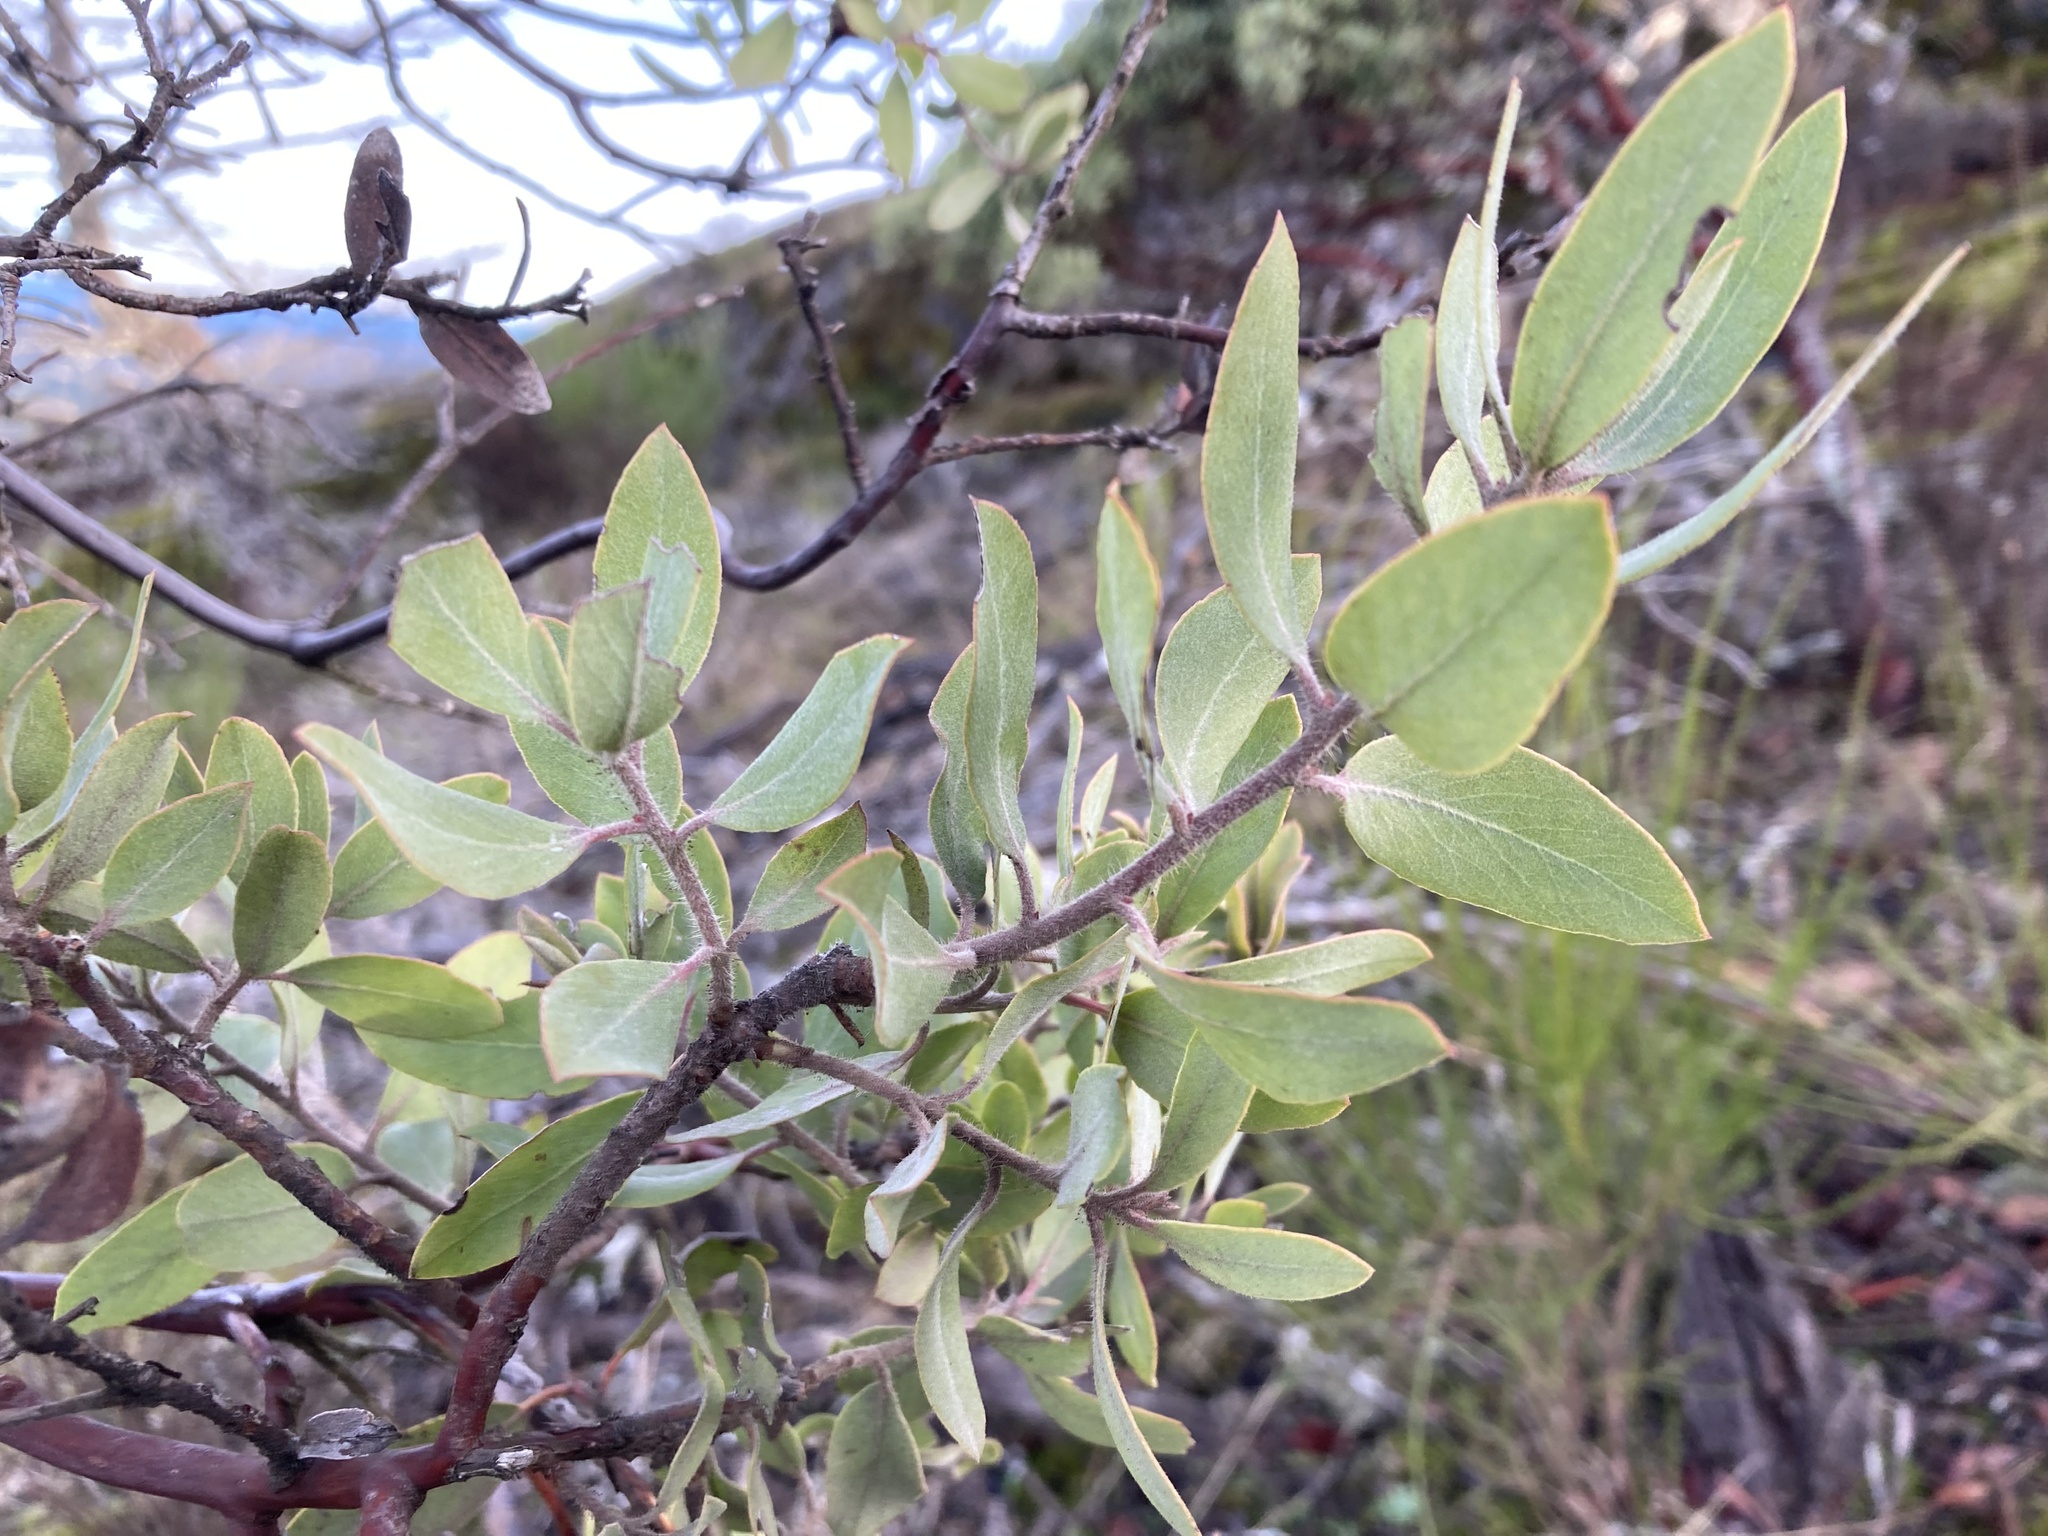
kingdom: Plantae
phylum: Tracheophyta
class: Magnoliopsida
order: Ericales
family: Ericaceae
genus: Arctostaphylos
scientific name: Arctostaphylos columbiana
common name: Bristly bearberry
